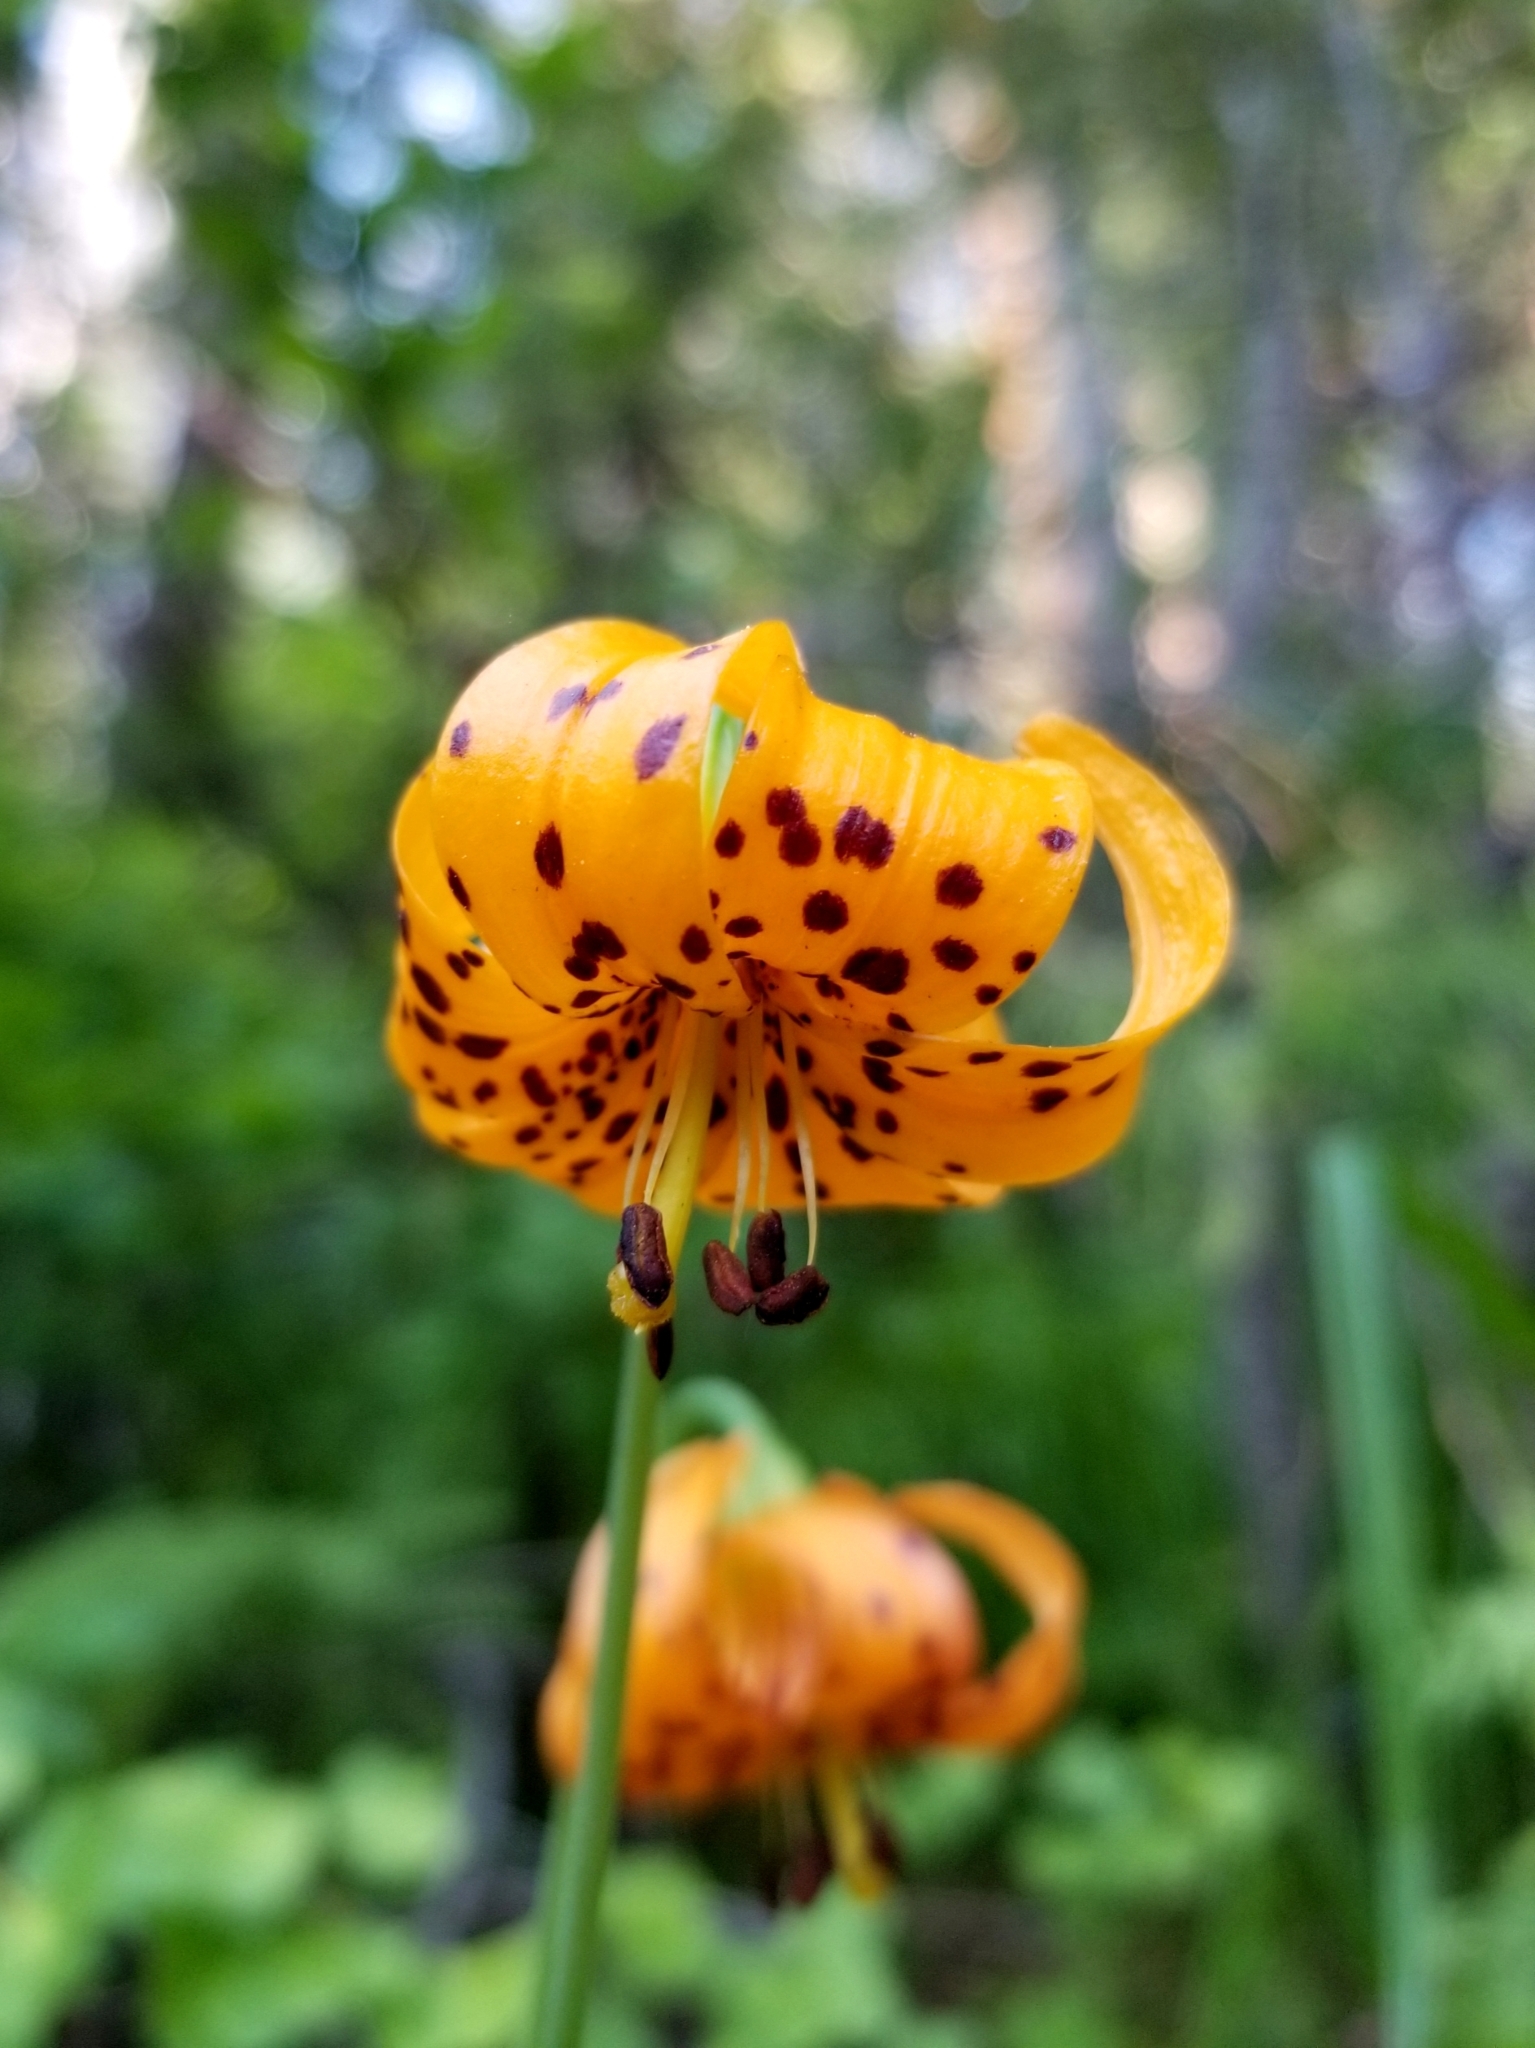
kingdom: Plantae
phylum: Tracheophyta
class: Liliopsida
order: Liliales
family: Liliaceae
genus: Lilium
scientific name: Lilium kelleyanum
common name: Kelley's lily
